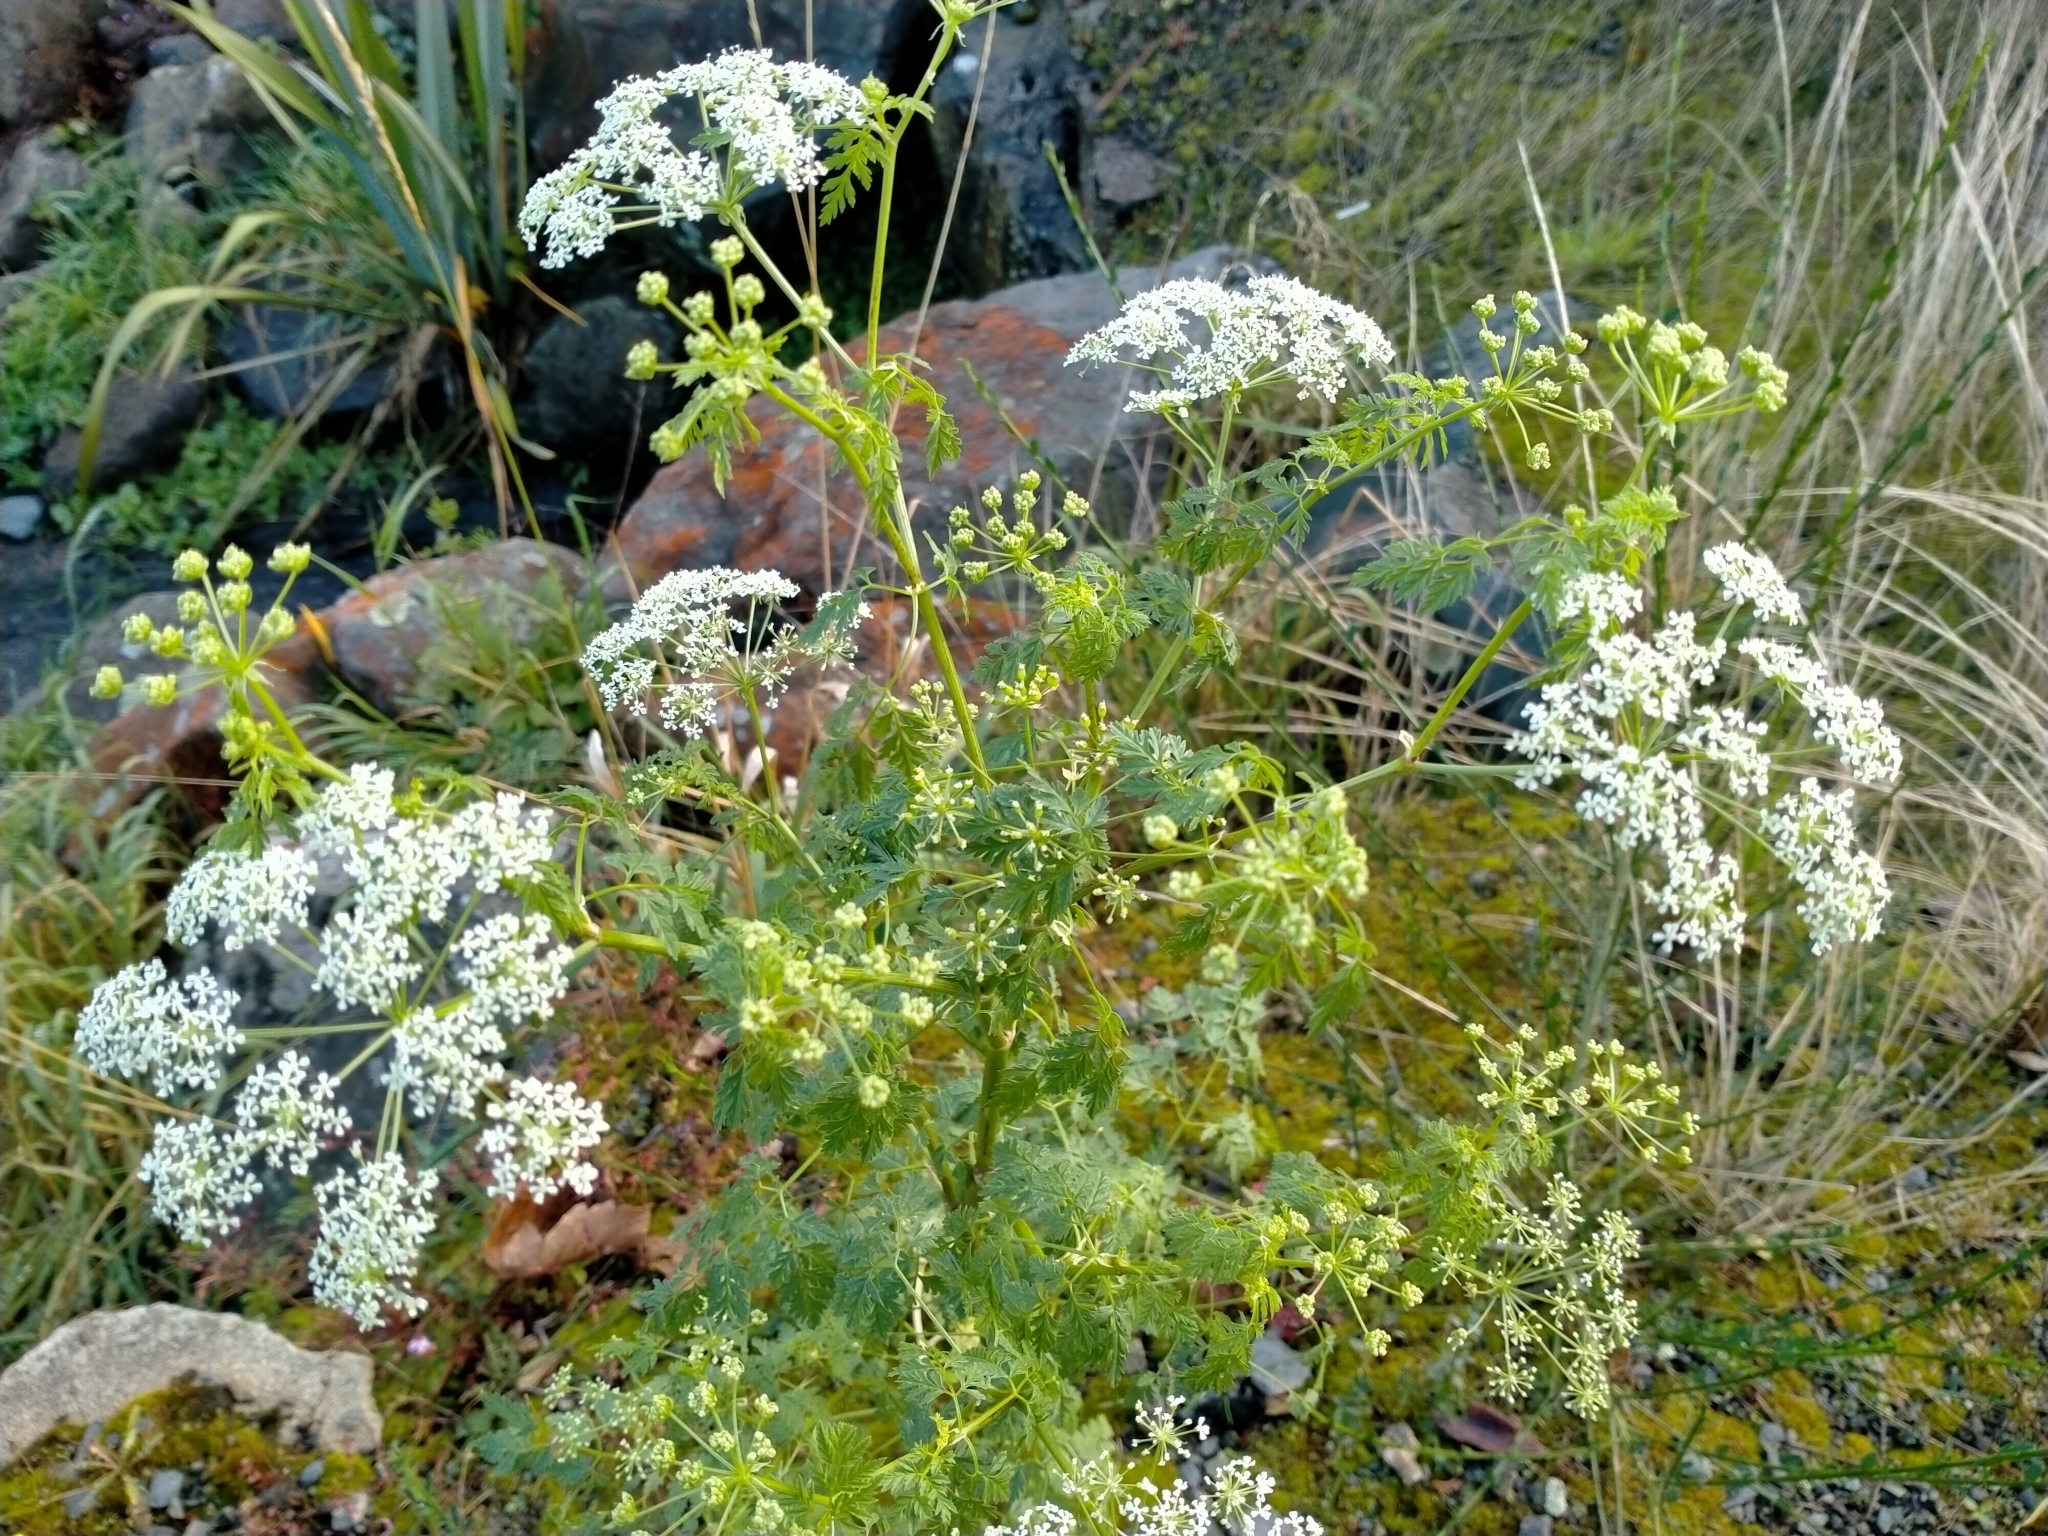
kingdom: Plantae
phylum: Tracheophyta
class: Magnoliopsida
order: Apiales
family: Apiaceae
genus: Conium
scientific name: Conium maculatum
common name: Hemlock
